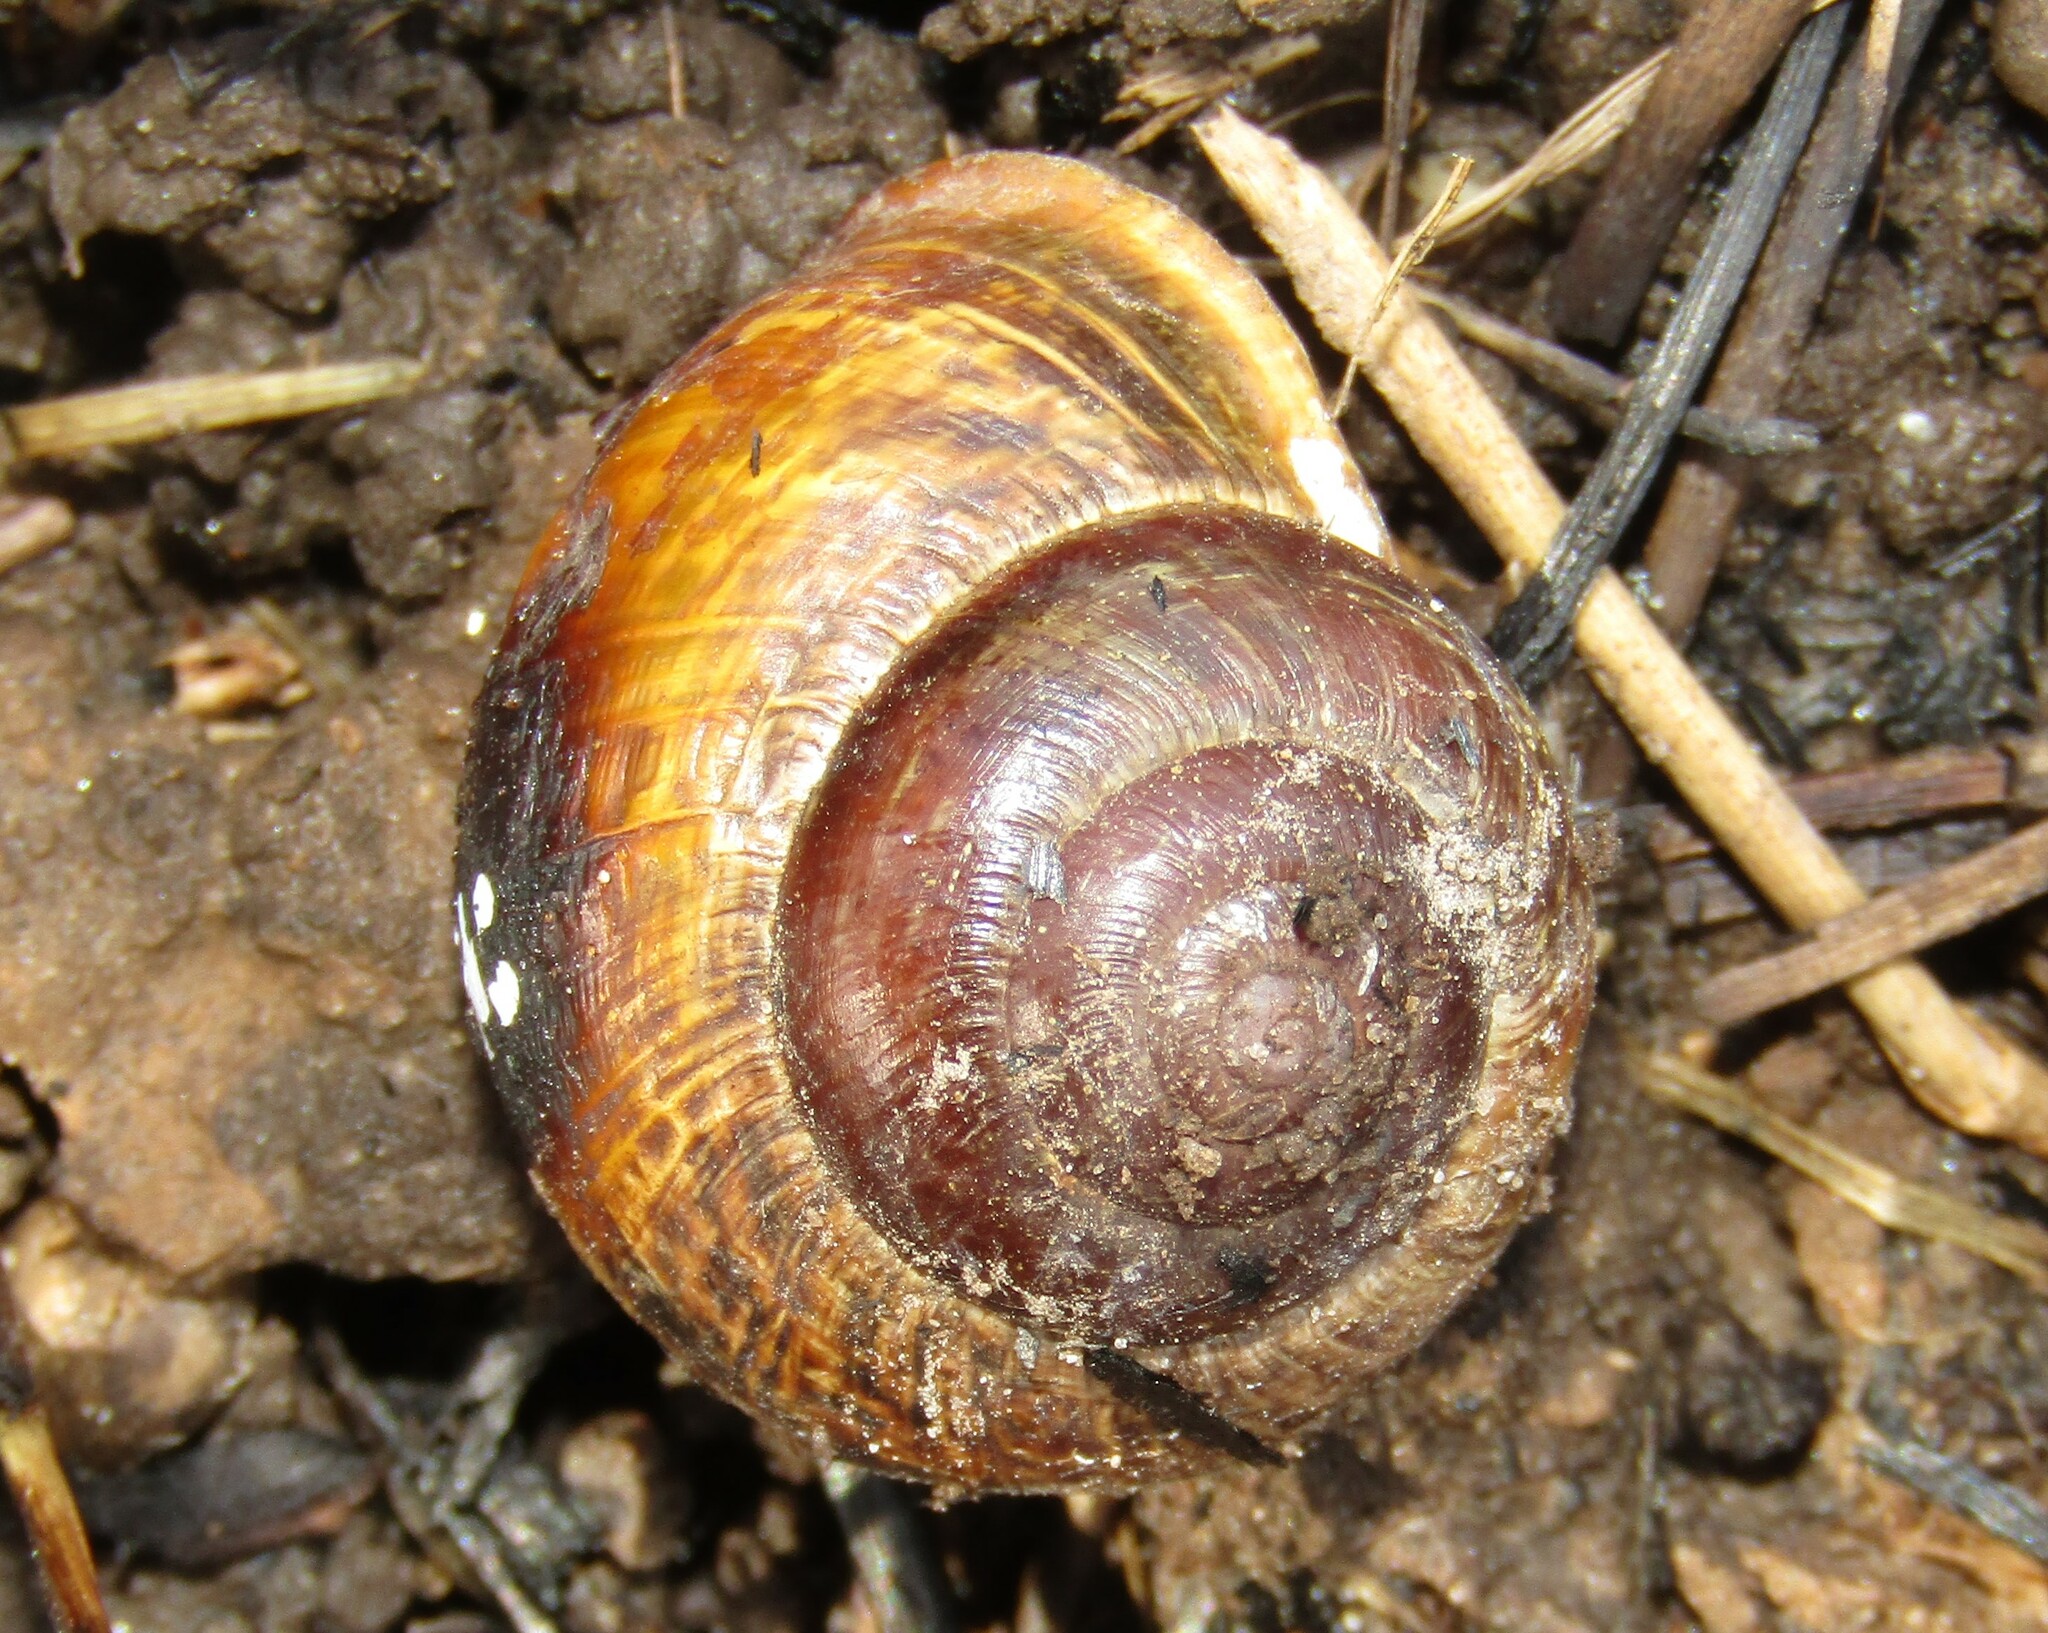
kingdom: Animalia
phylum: Mollusca
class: Gastropoda
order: Stylommatophora
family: Helicidae
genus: Arianta
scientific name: Arianta arbustorum
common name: Copse snail
